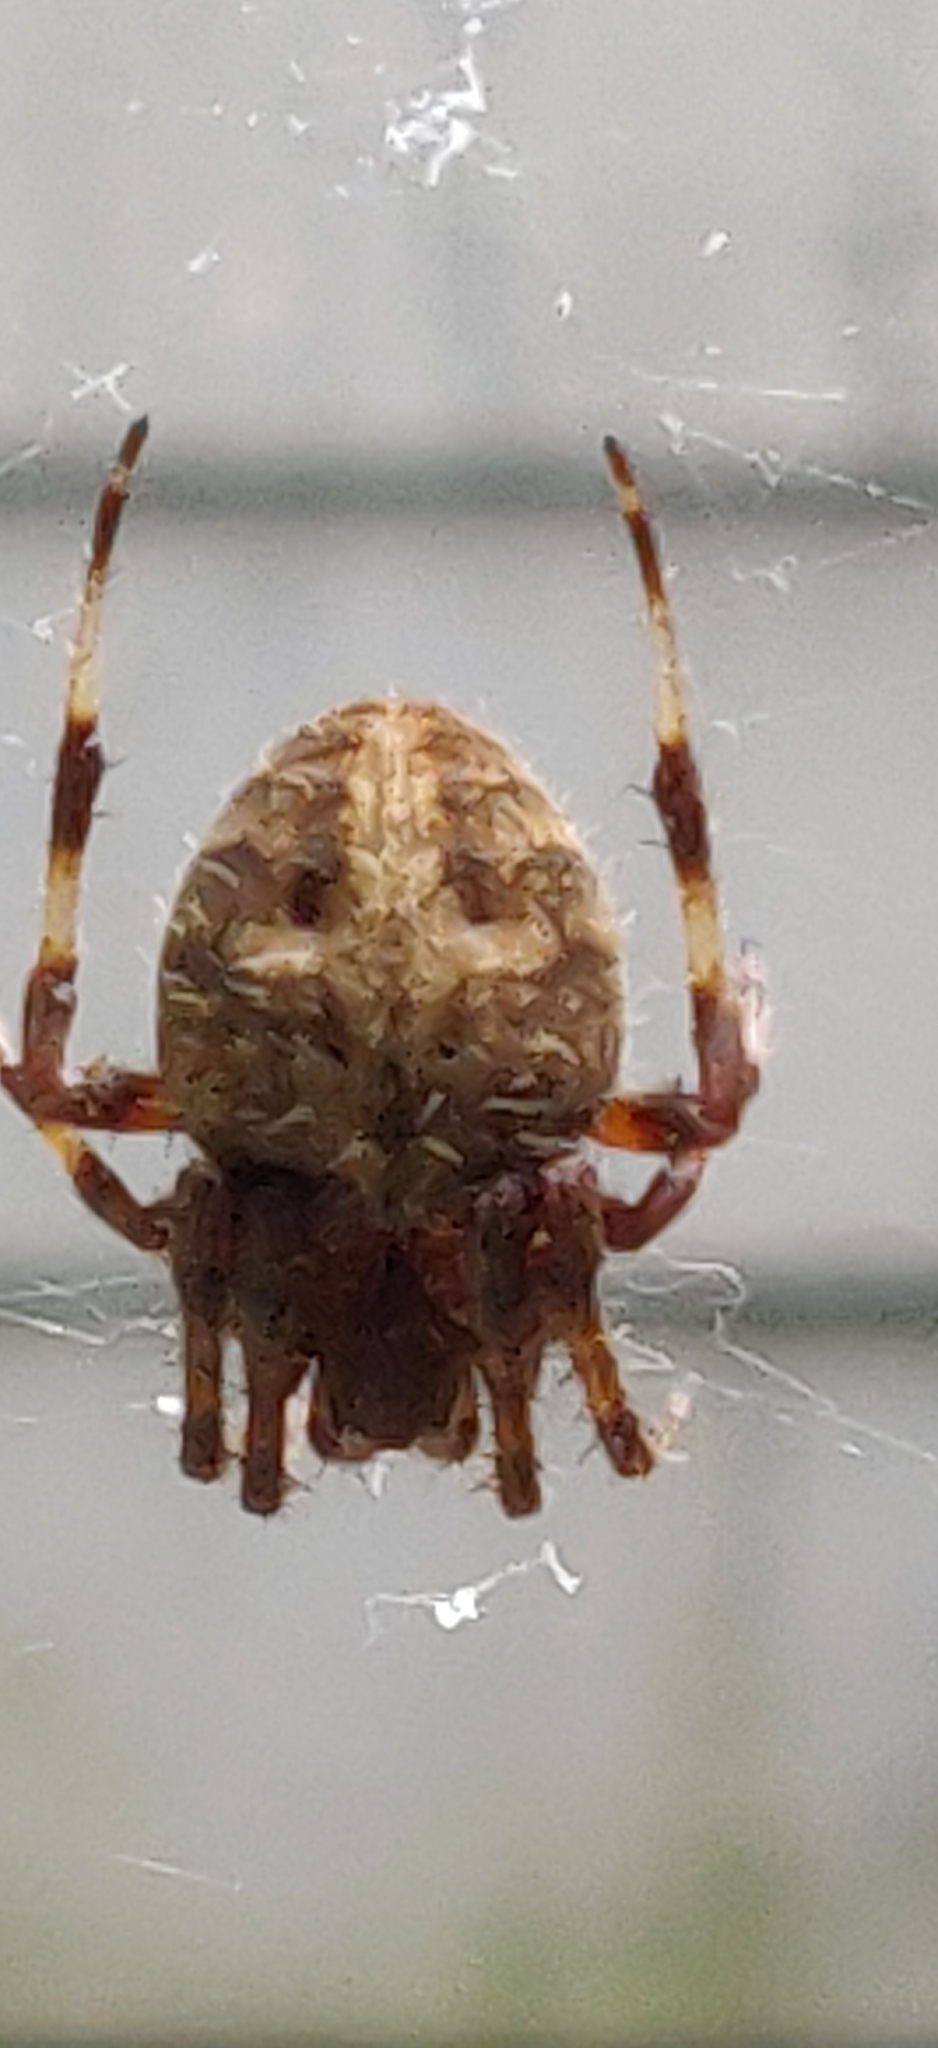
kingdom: Animalia
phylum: Arthropoda
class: Arachnida
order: Araneae
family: Araneidae
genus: Neoscona
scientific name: Neoscona crucifera
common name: Spotted orbweaver
